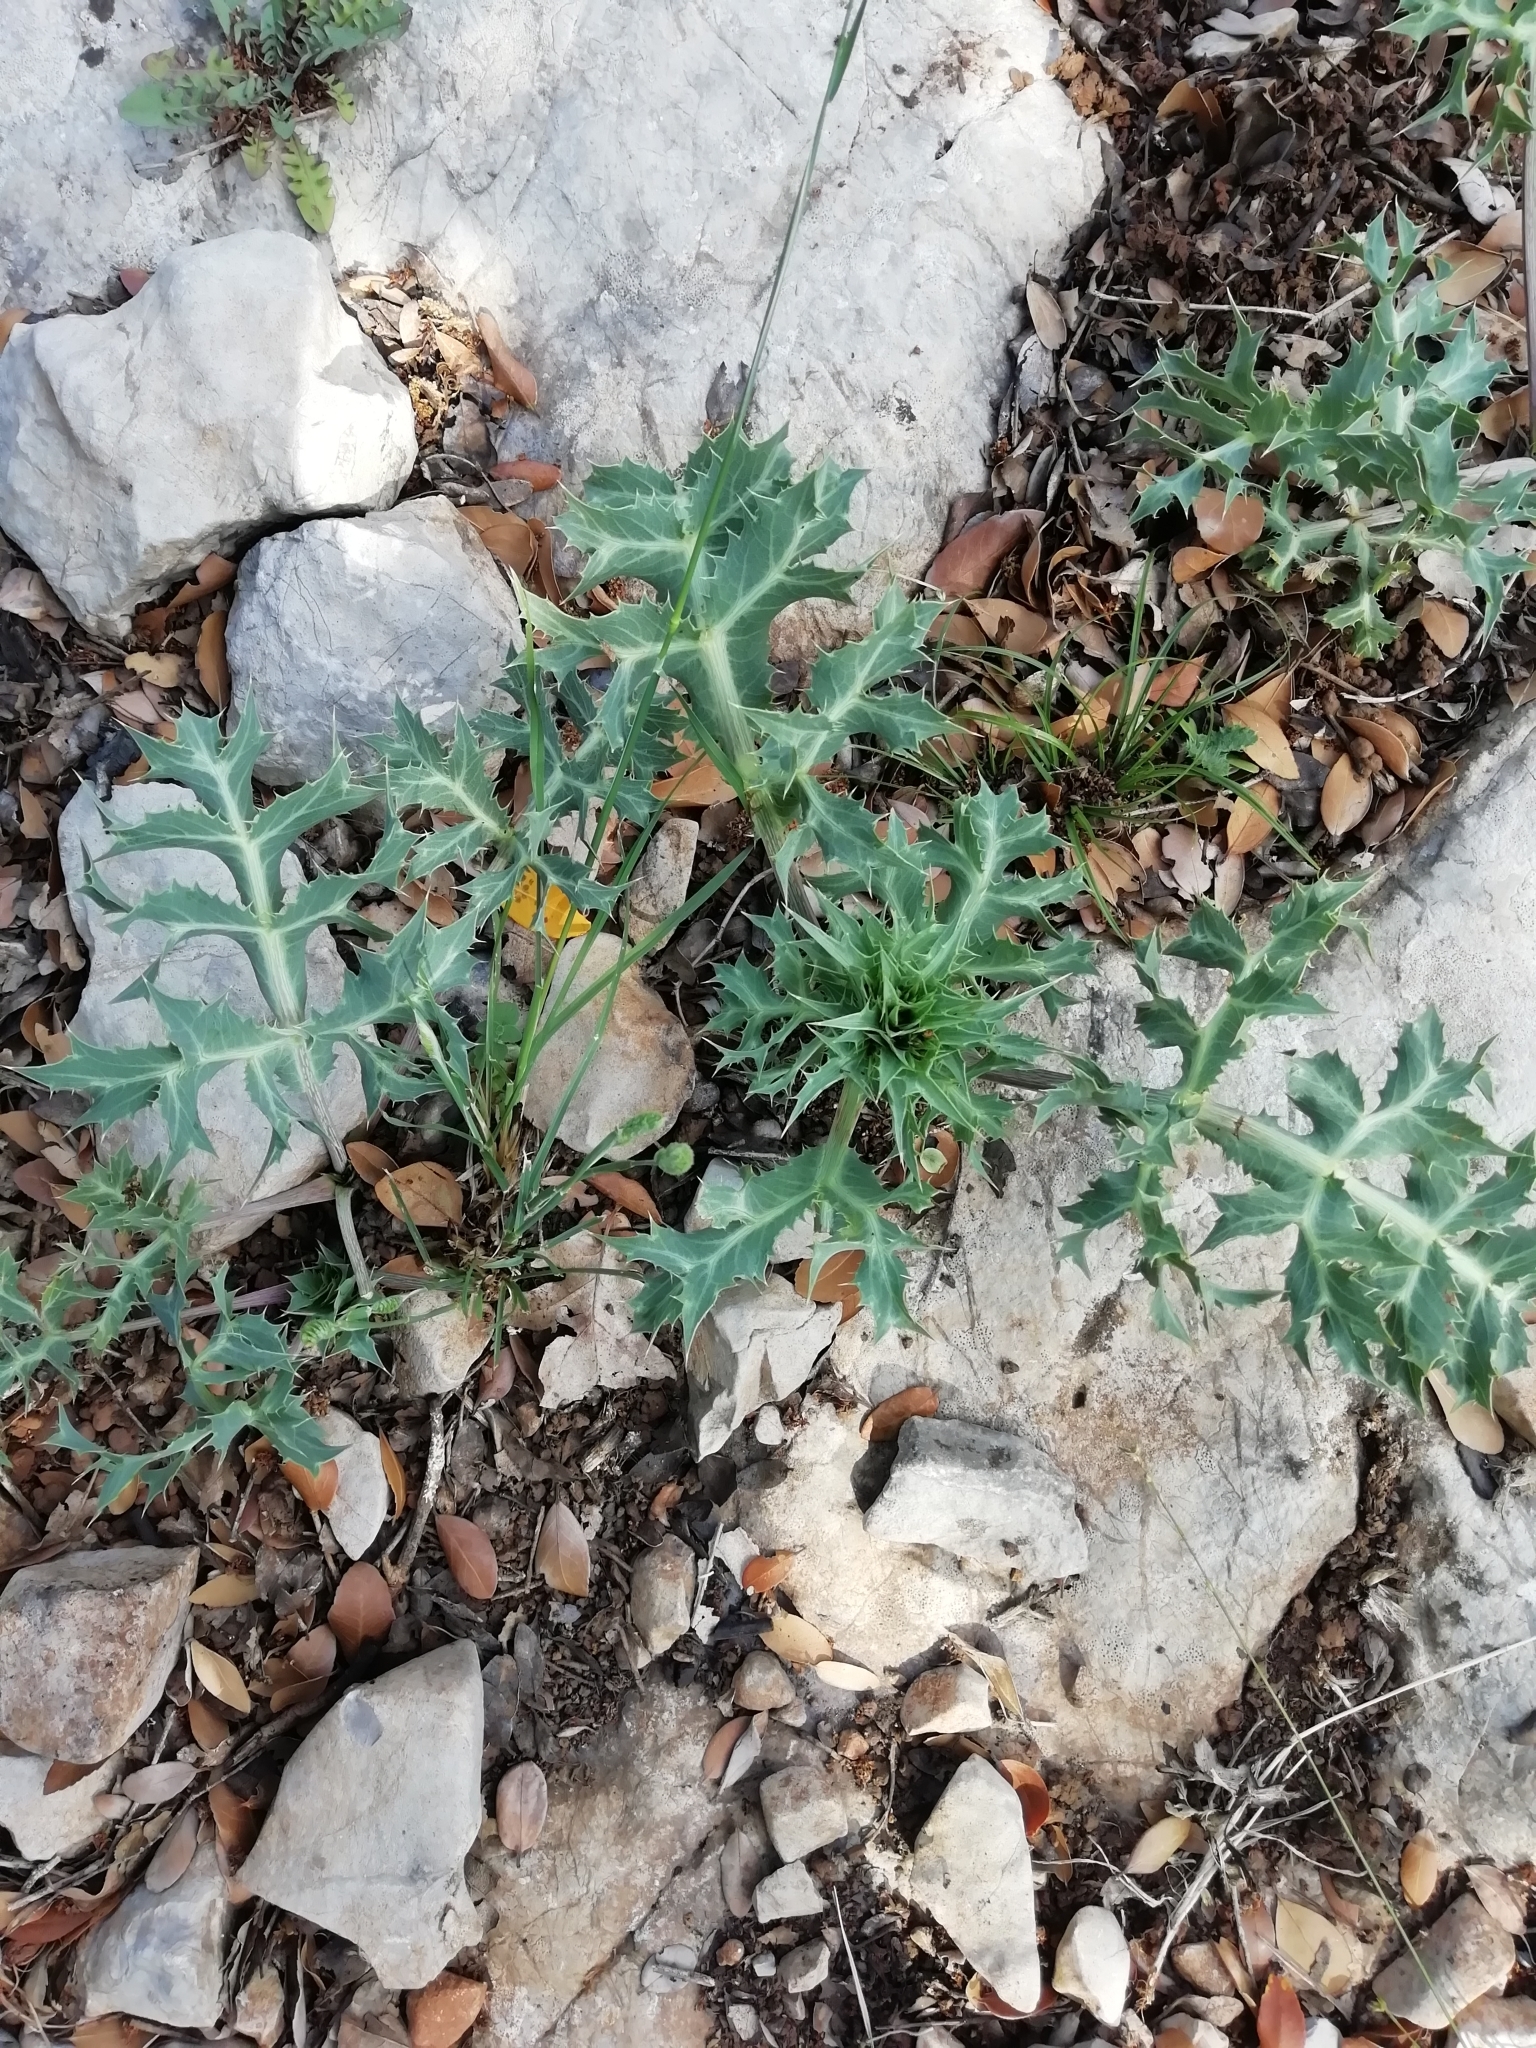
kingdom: Plantae
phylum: Tracheophyta
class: Magnoliopsida
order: Apiales
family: Apiaceae
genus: Eryngium
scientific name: Eryngium campestre
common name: Field eryngo
